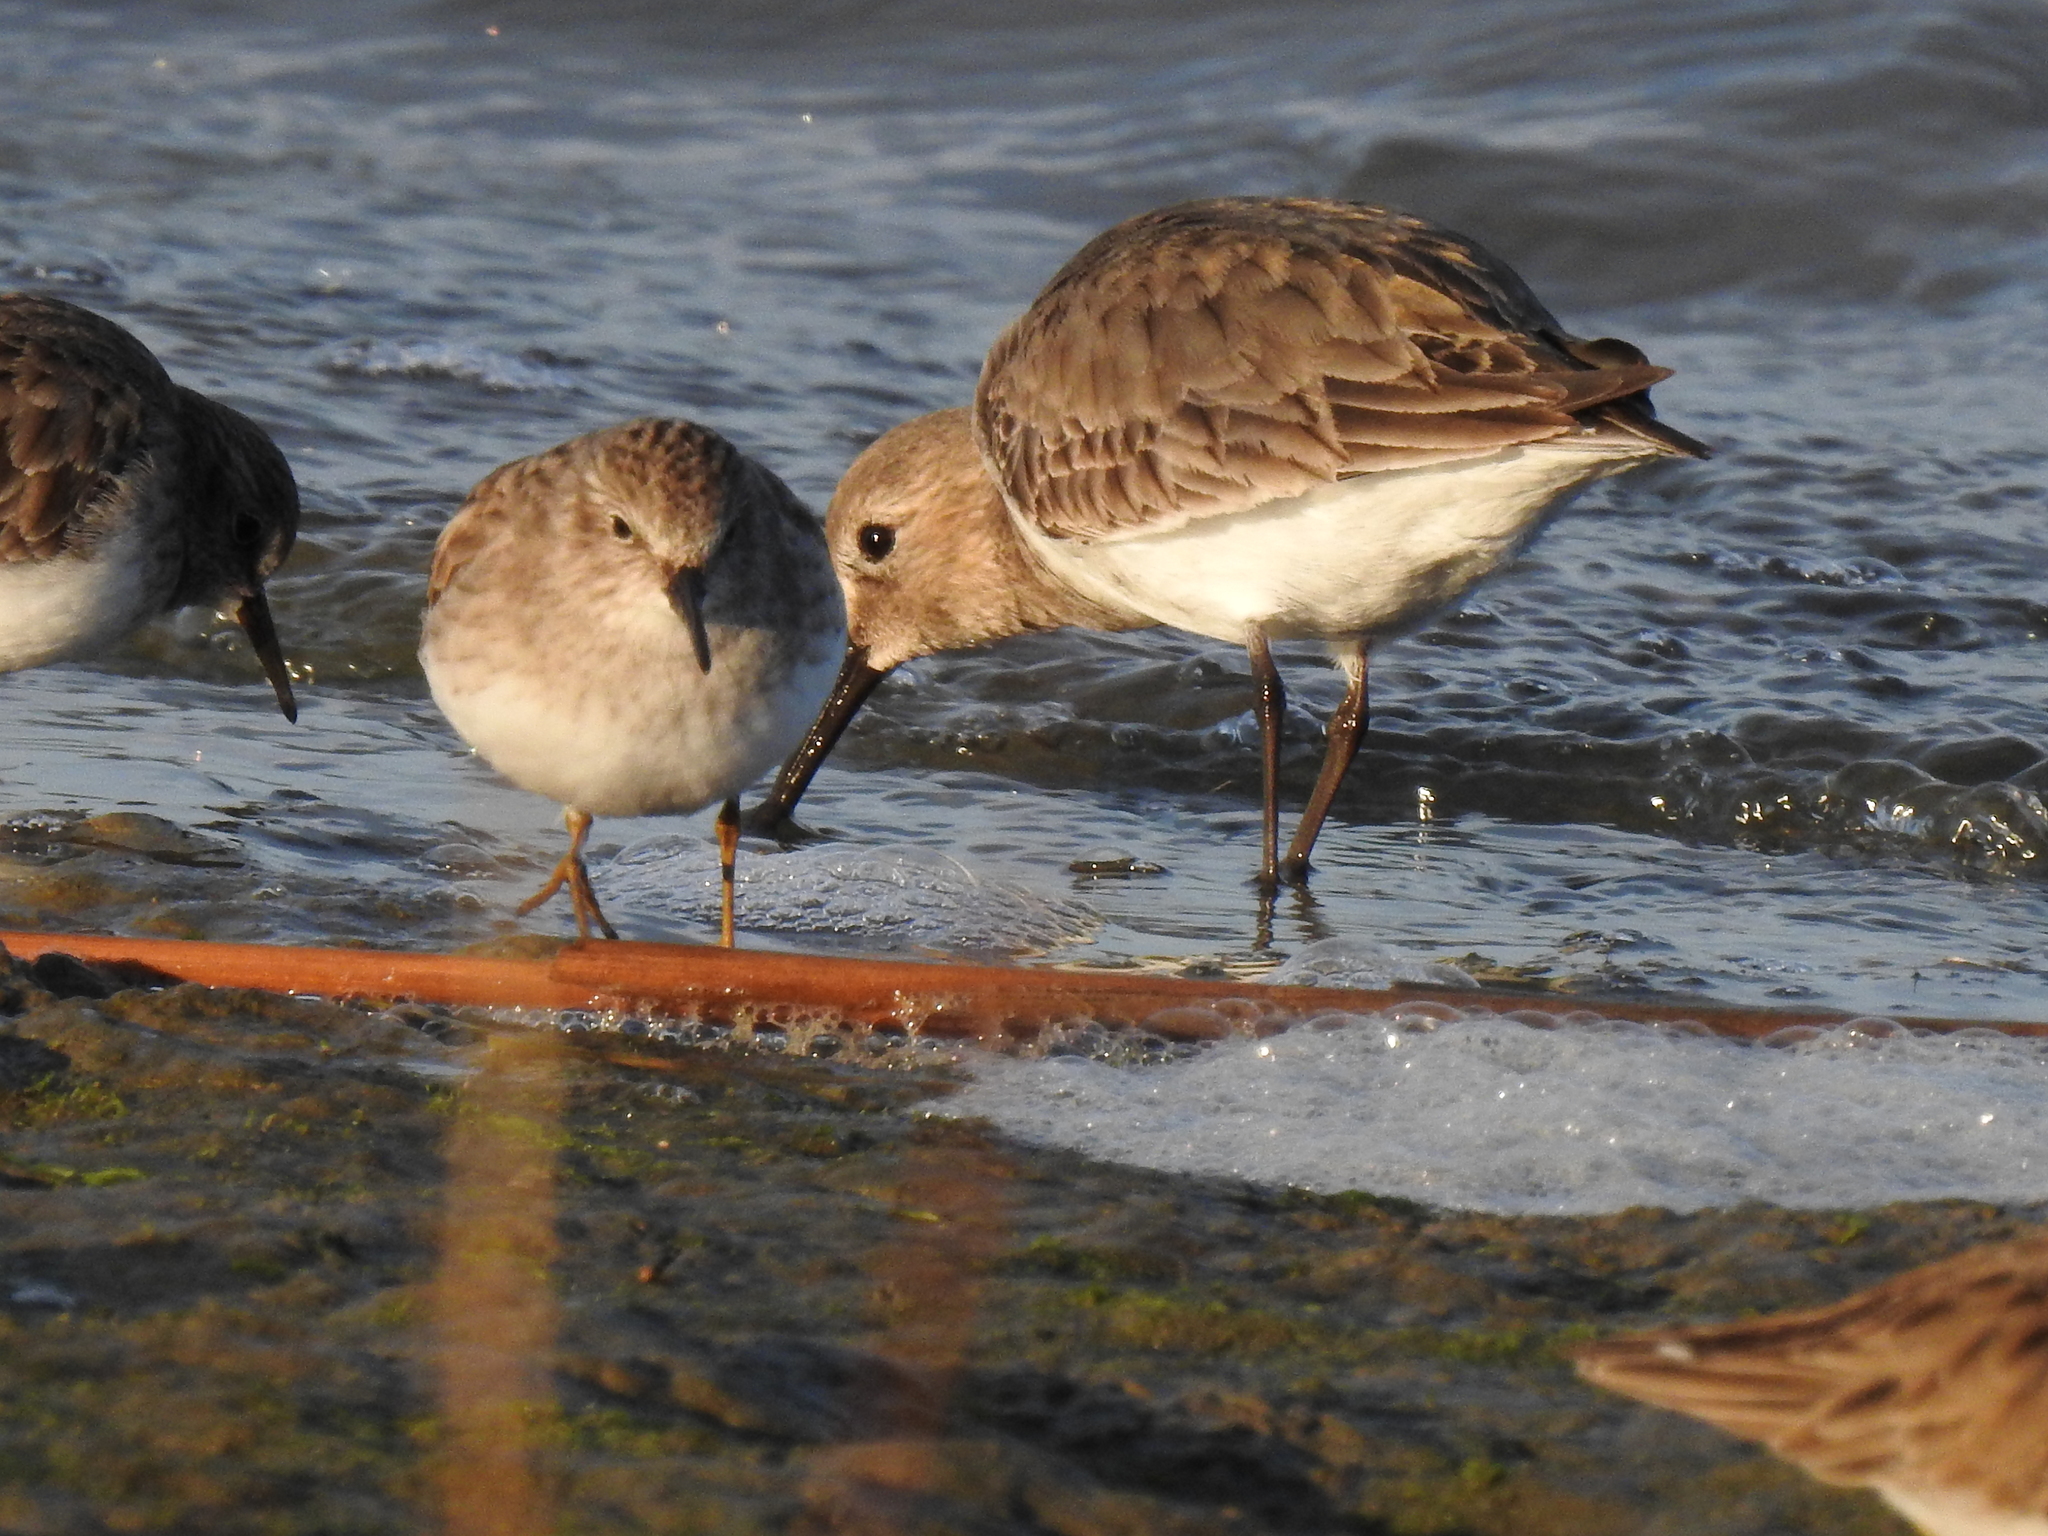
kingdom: Animalia
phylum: Chordata
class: Aves
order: Charadriiformes
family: Scolopacidae
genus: Calidris
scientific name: Calidris minutilla
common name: Least sandpiper
